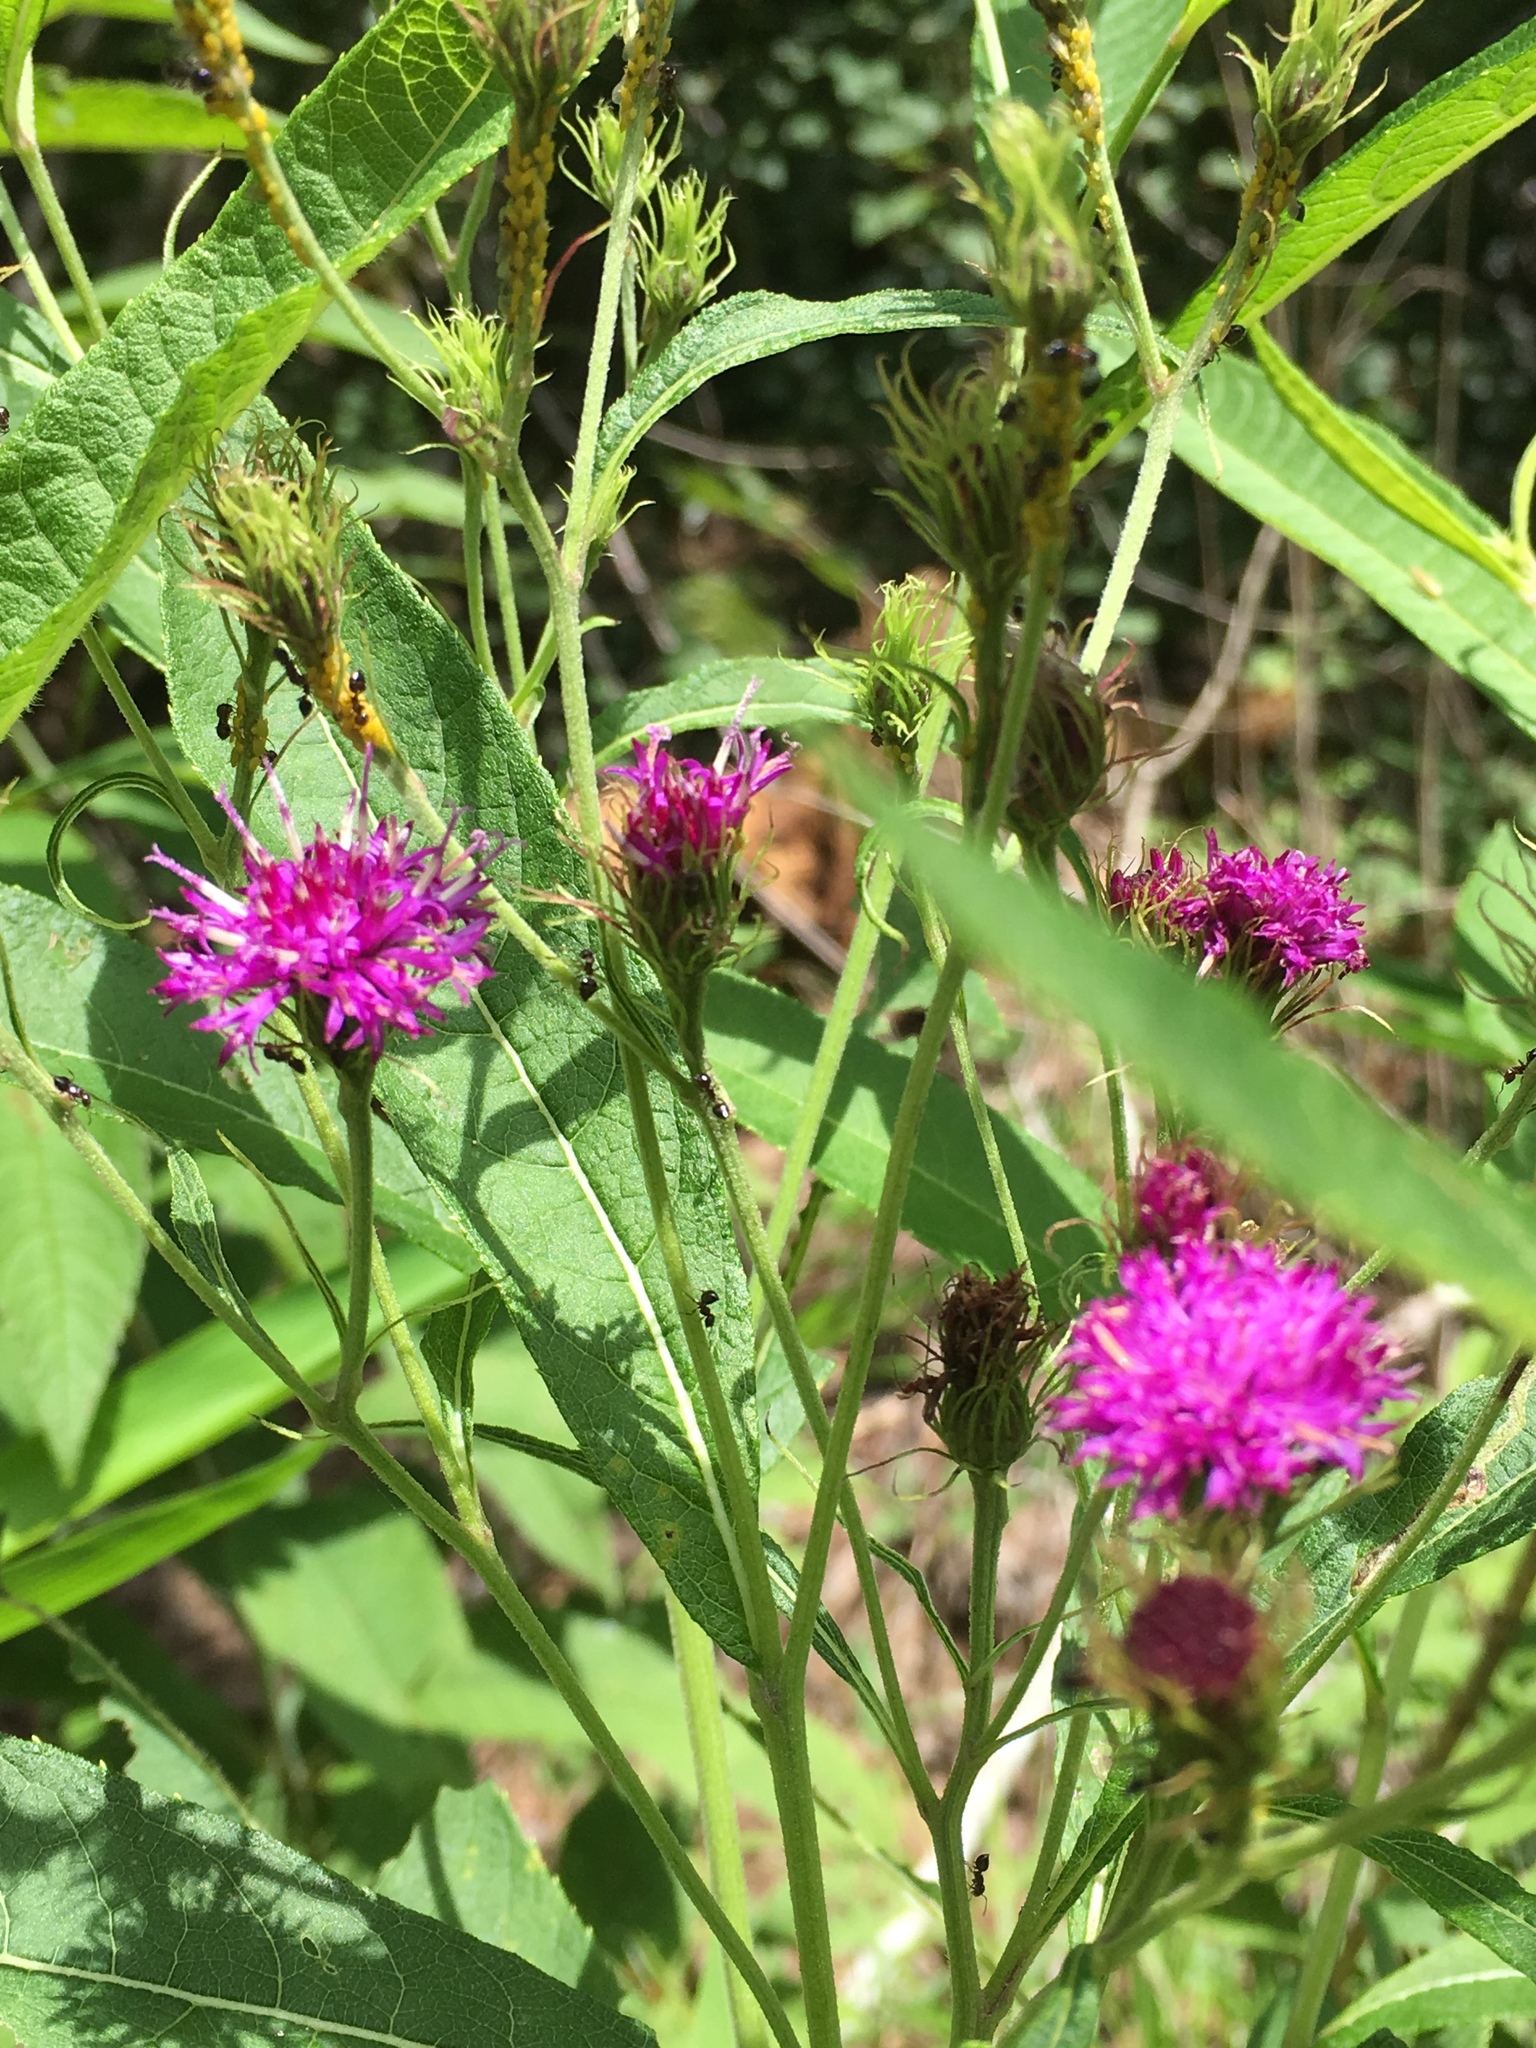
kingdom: Plantae
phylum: Tracheophyta
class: Magnoliopsida
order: Asterales
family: Asteraceae
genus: Vernonia
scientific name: Vernonia noveboracensis
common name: New york ironweed
